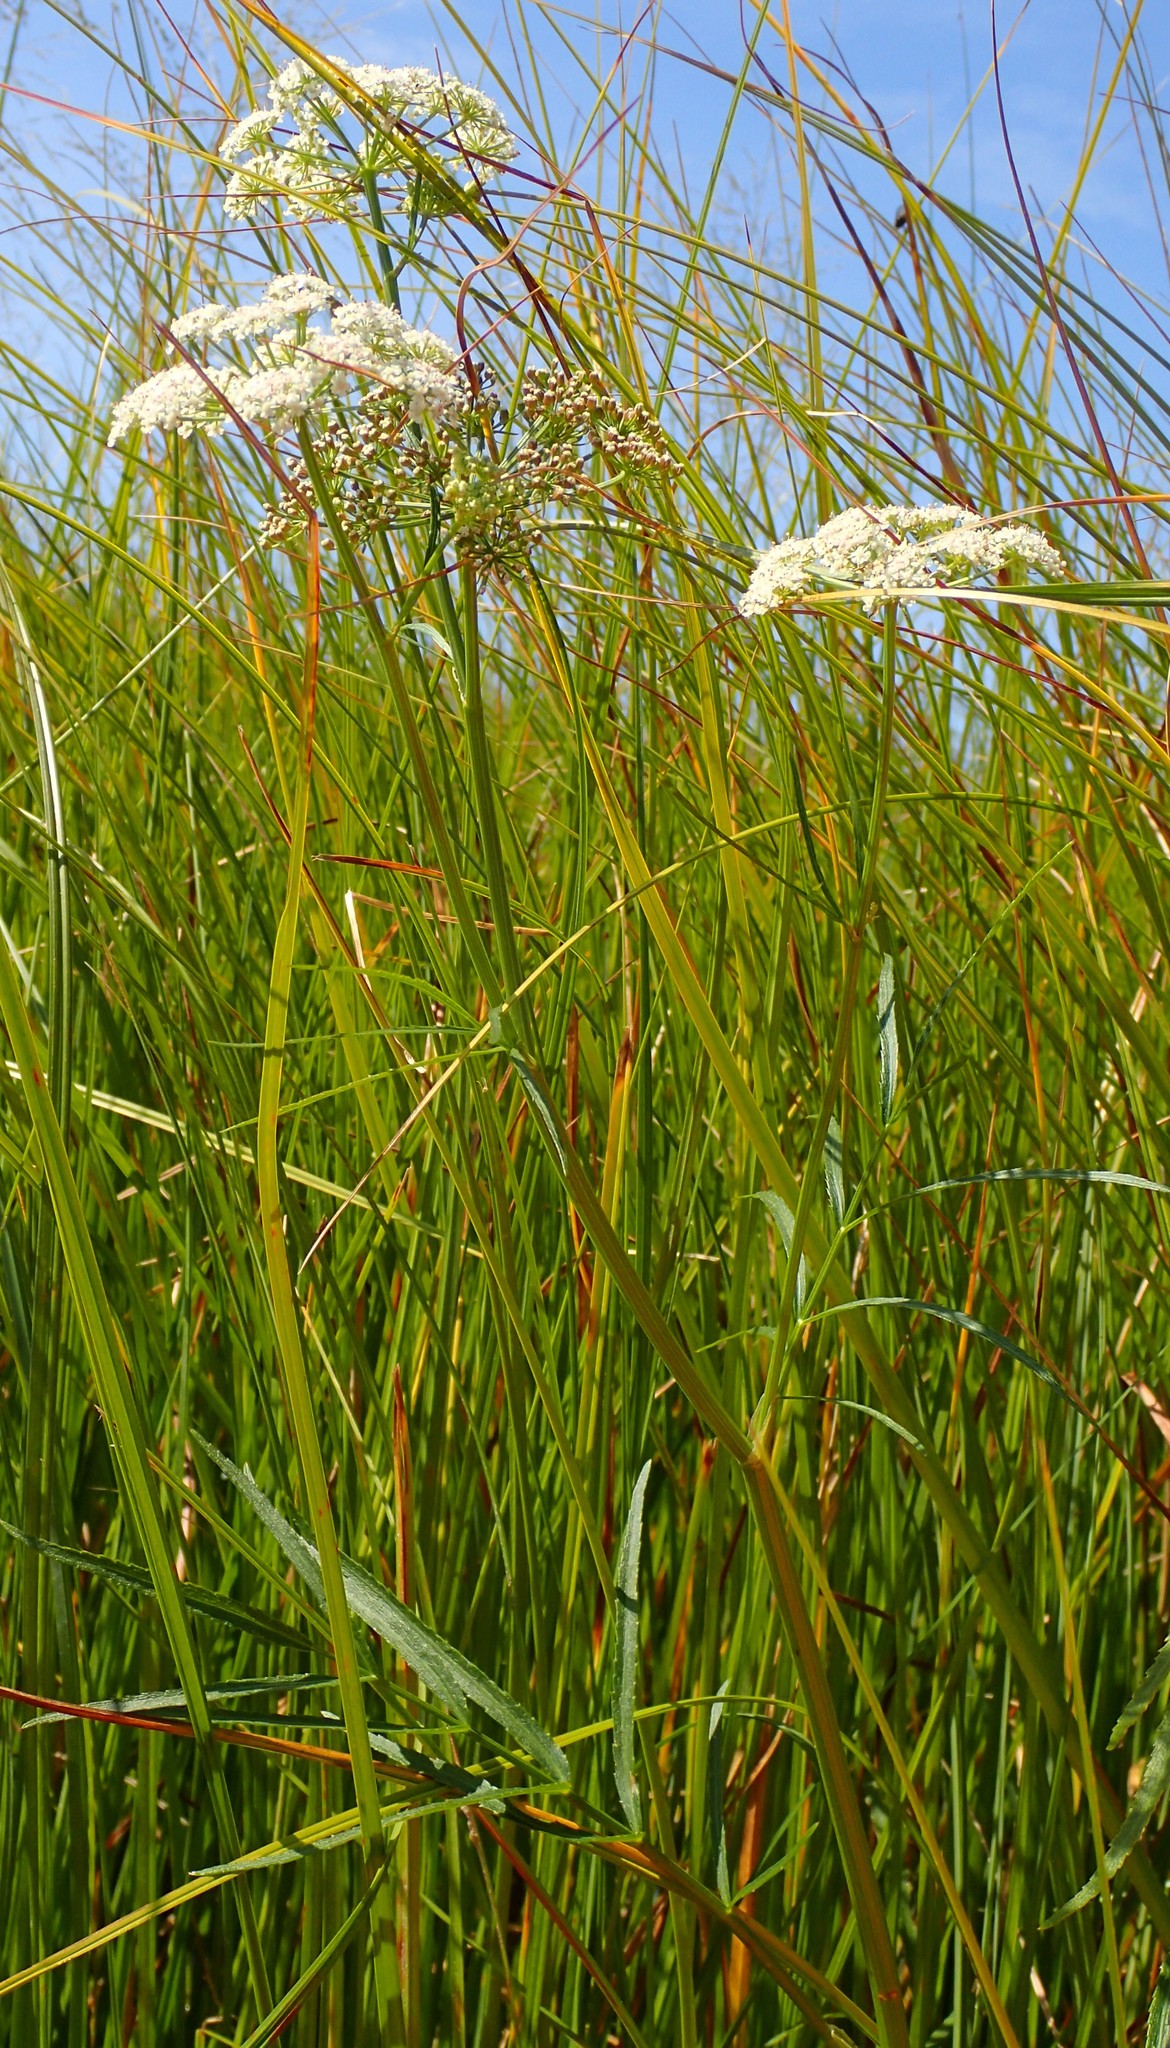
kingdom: Plantae
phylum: Tracheophyta
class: Magnoliopsida
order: Apiales
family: Apiaceae
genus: Sium
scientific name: Sium suave
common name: Hemlock water-parsnip
